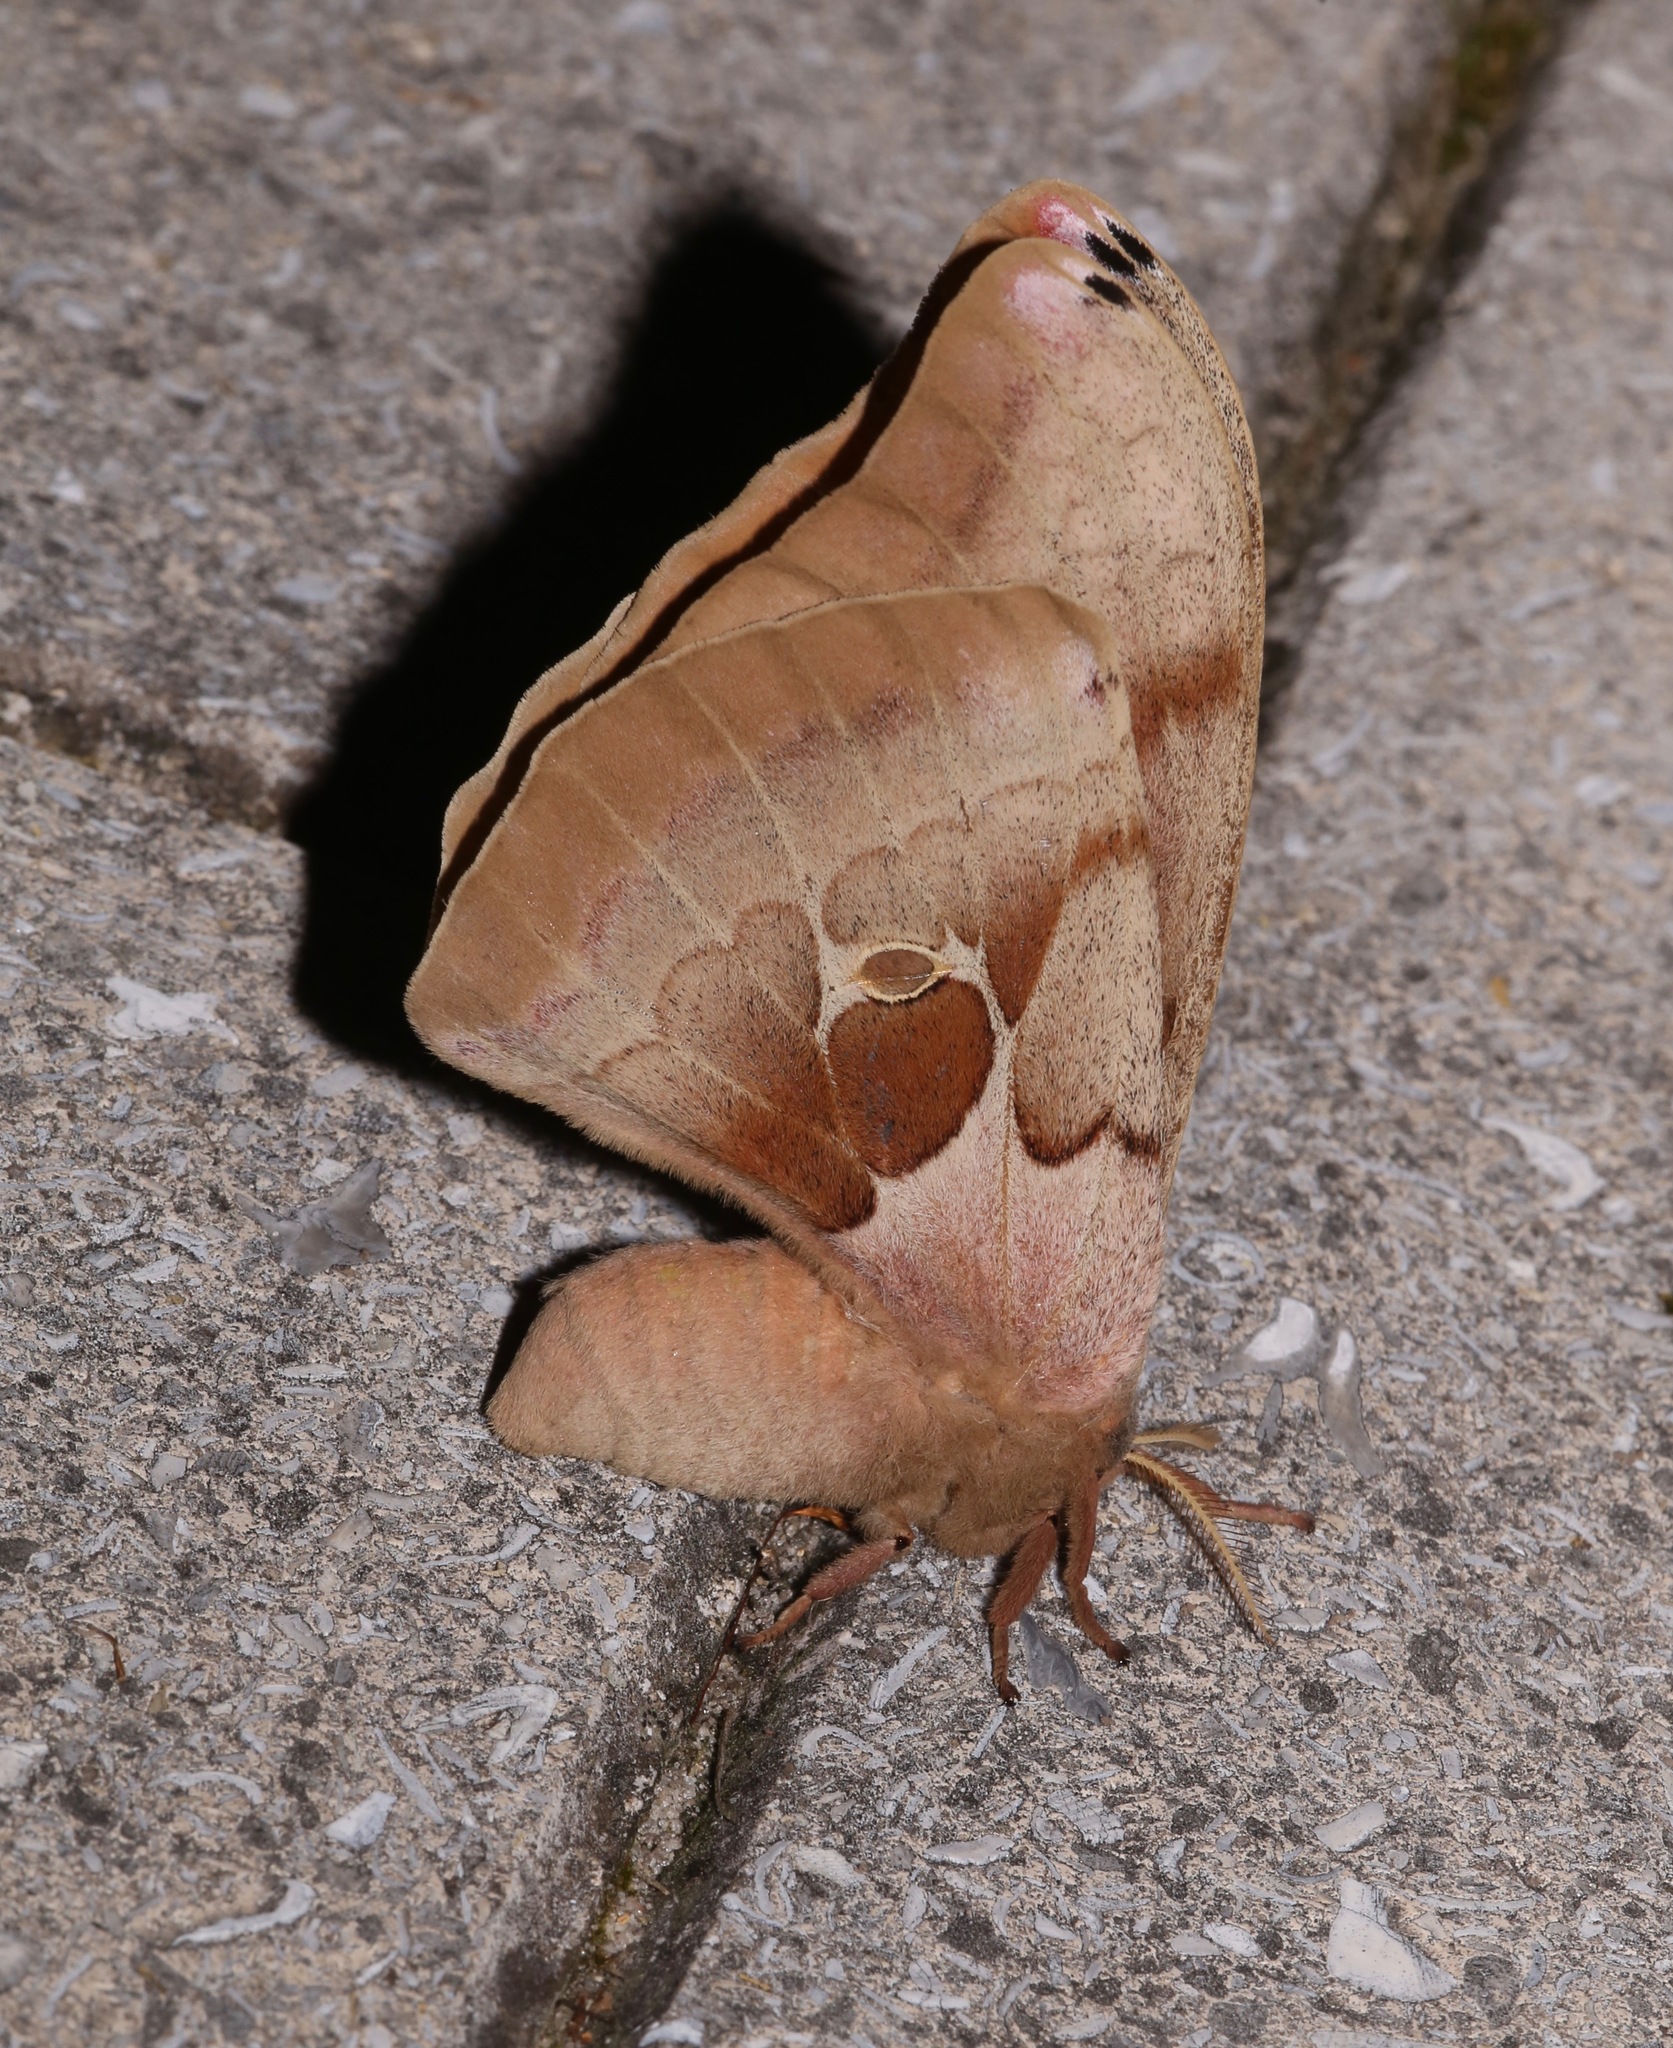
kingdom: Animalia
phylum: Arthropoda
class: Insecta
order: Lepidoptera
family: Saturniidae
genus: Antheraea
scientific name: Antheraea polyphemus
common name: Polyphemus moth
